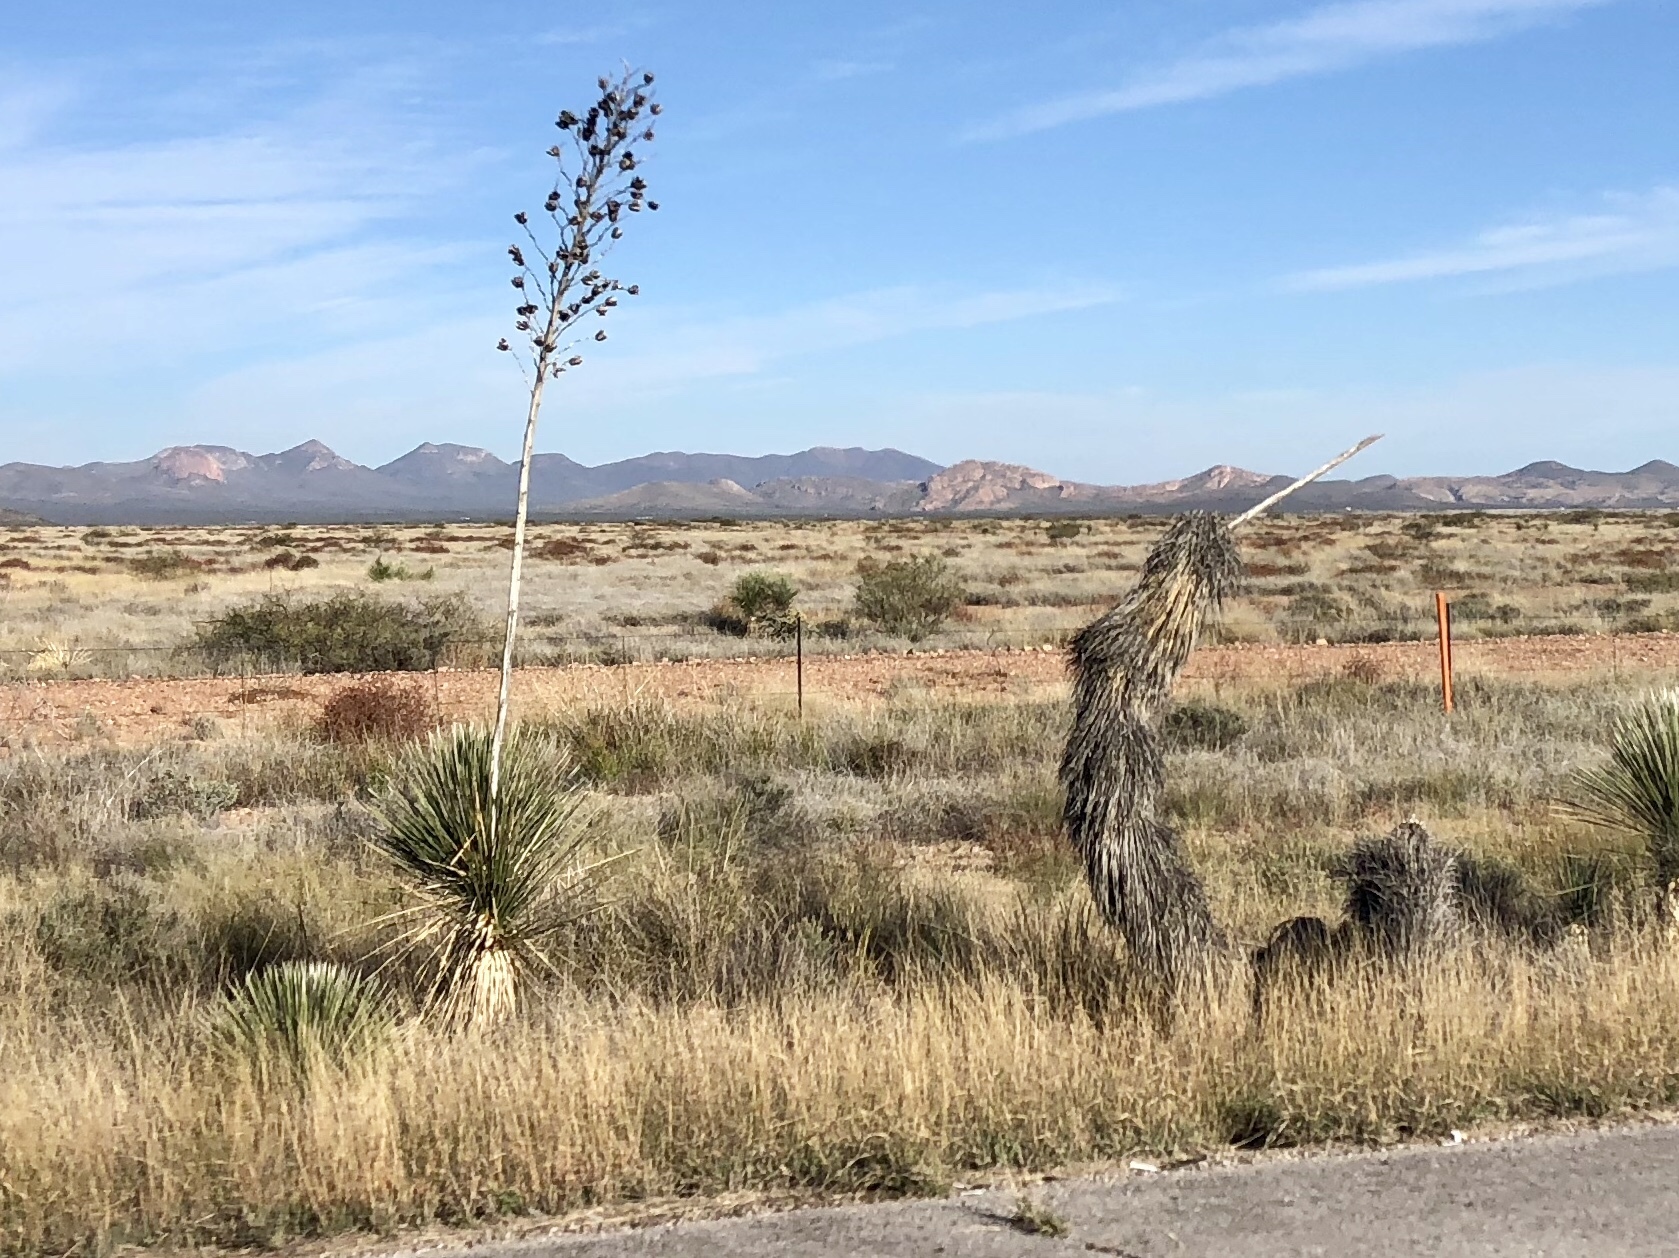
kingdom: Plantae
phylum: Tracheophyta
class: Liliopsida
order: Asparagales
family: Asparagaceae
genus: Yucca
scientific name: Yucca elata
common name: Palmella
